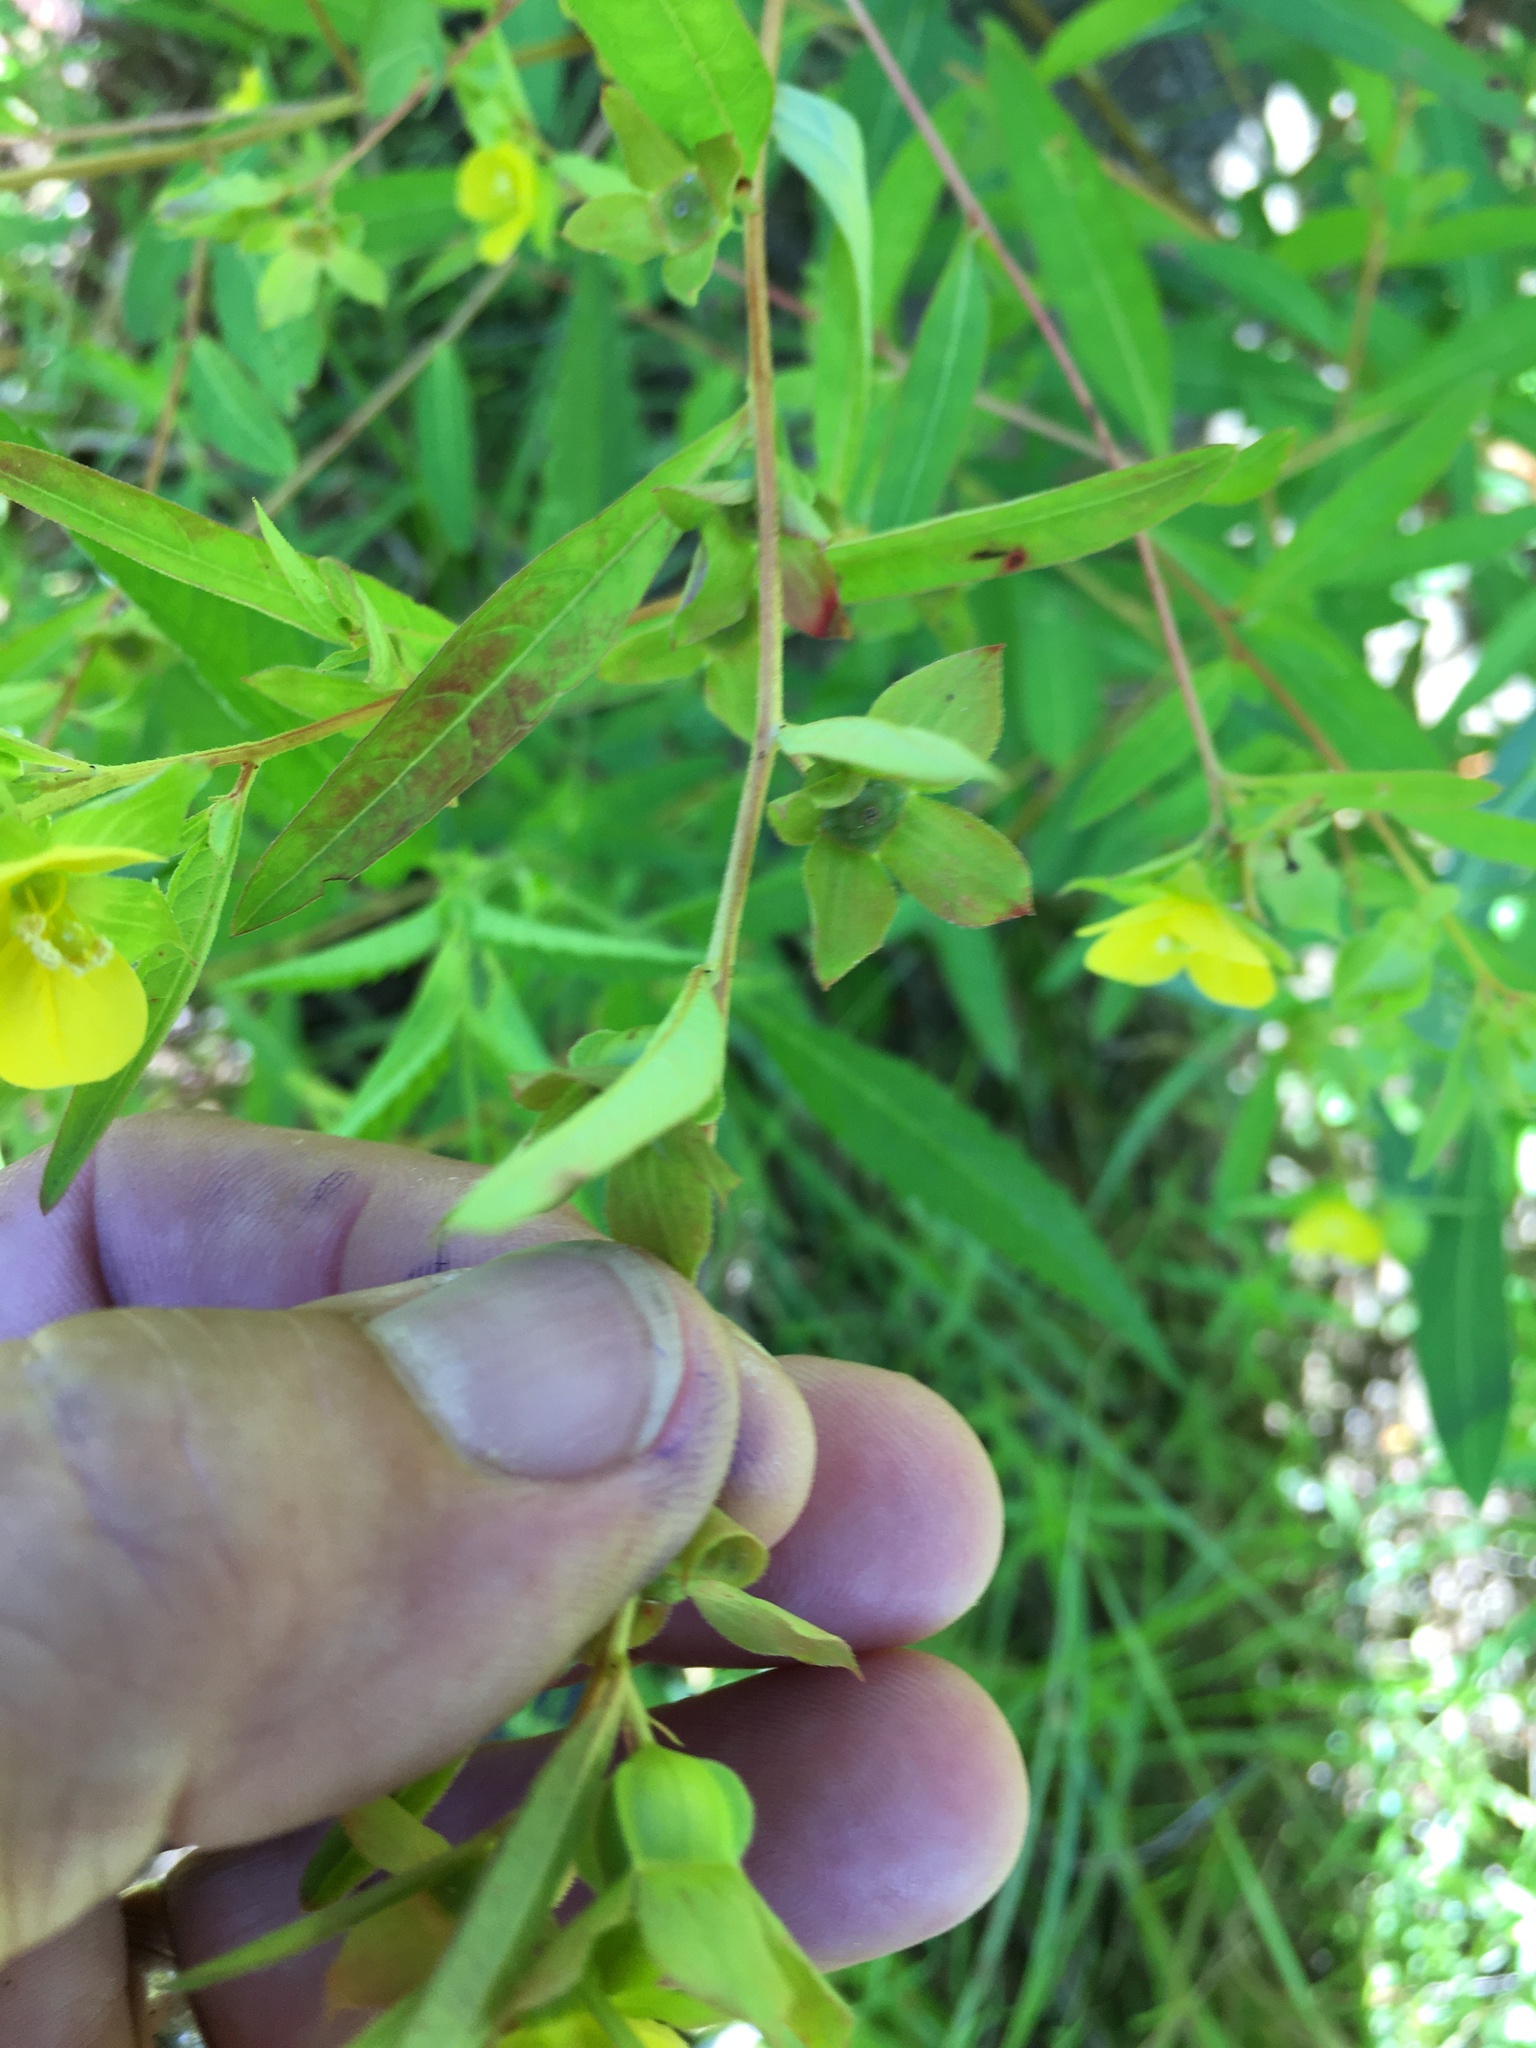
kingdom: Plantae
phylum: Tracheophyta
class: Magnoliopsida
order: Myrtales
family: Onagraceae
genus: Ludwigia
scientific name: Ludwigia alternifolia
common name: Rattlebox
